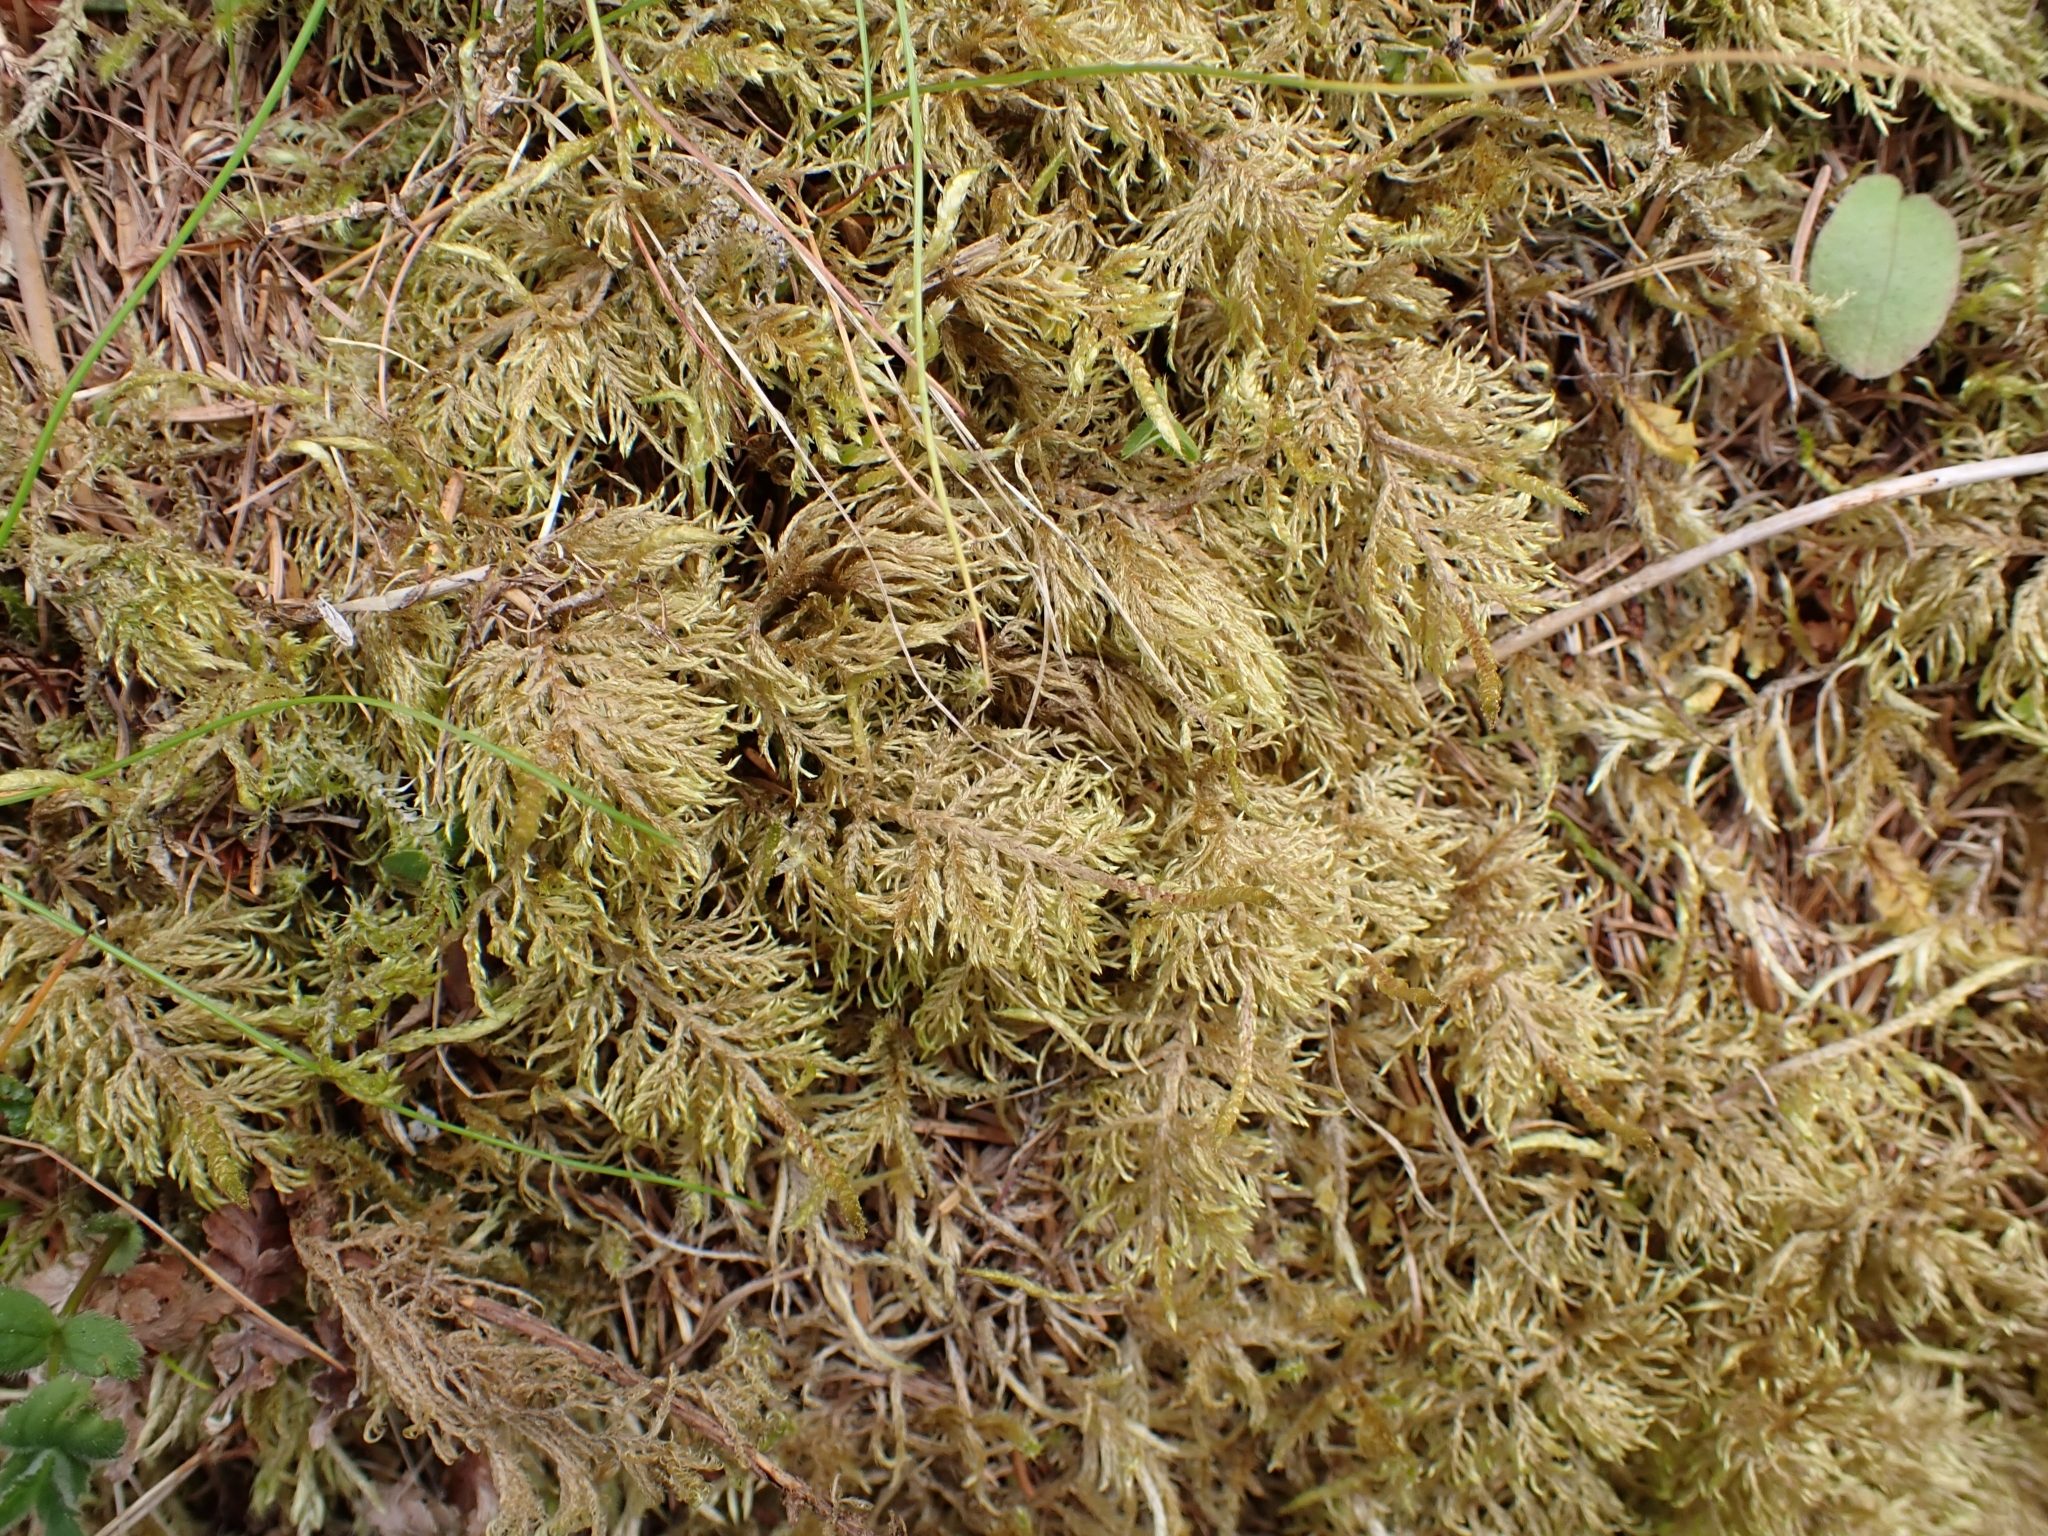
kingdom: Plantae
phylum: Bryophyta
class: Bryopsida
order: Hypnales
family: Hylocomiaceae
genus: Hylocomium
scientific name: Hylocomium splendens
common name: Stairstep moss
